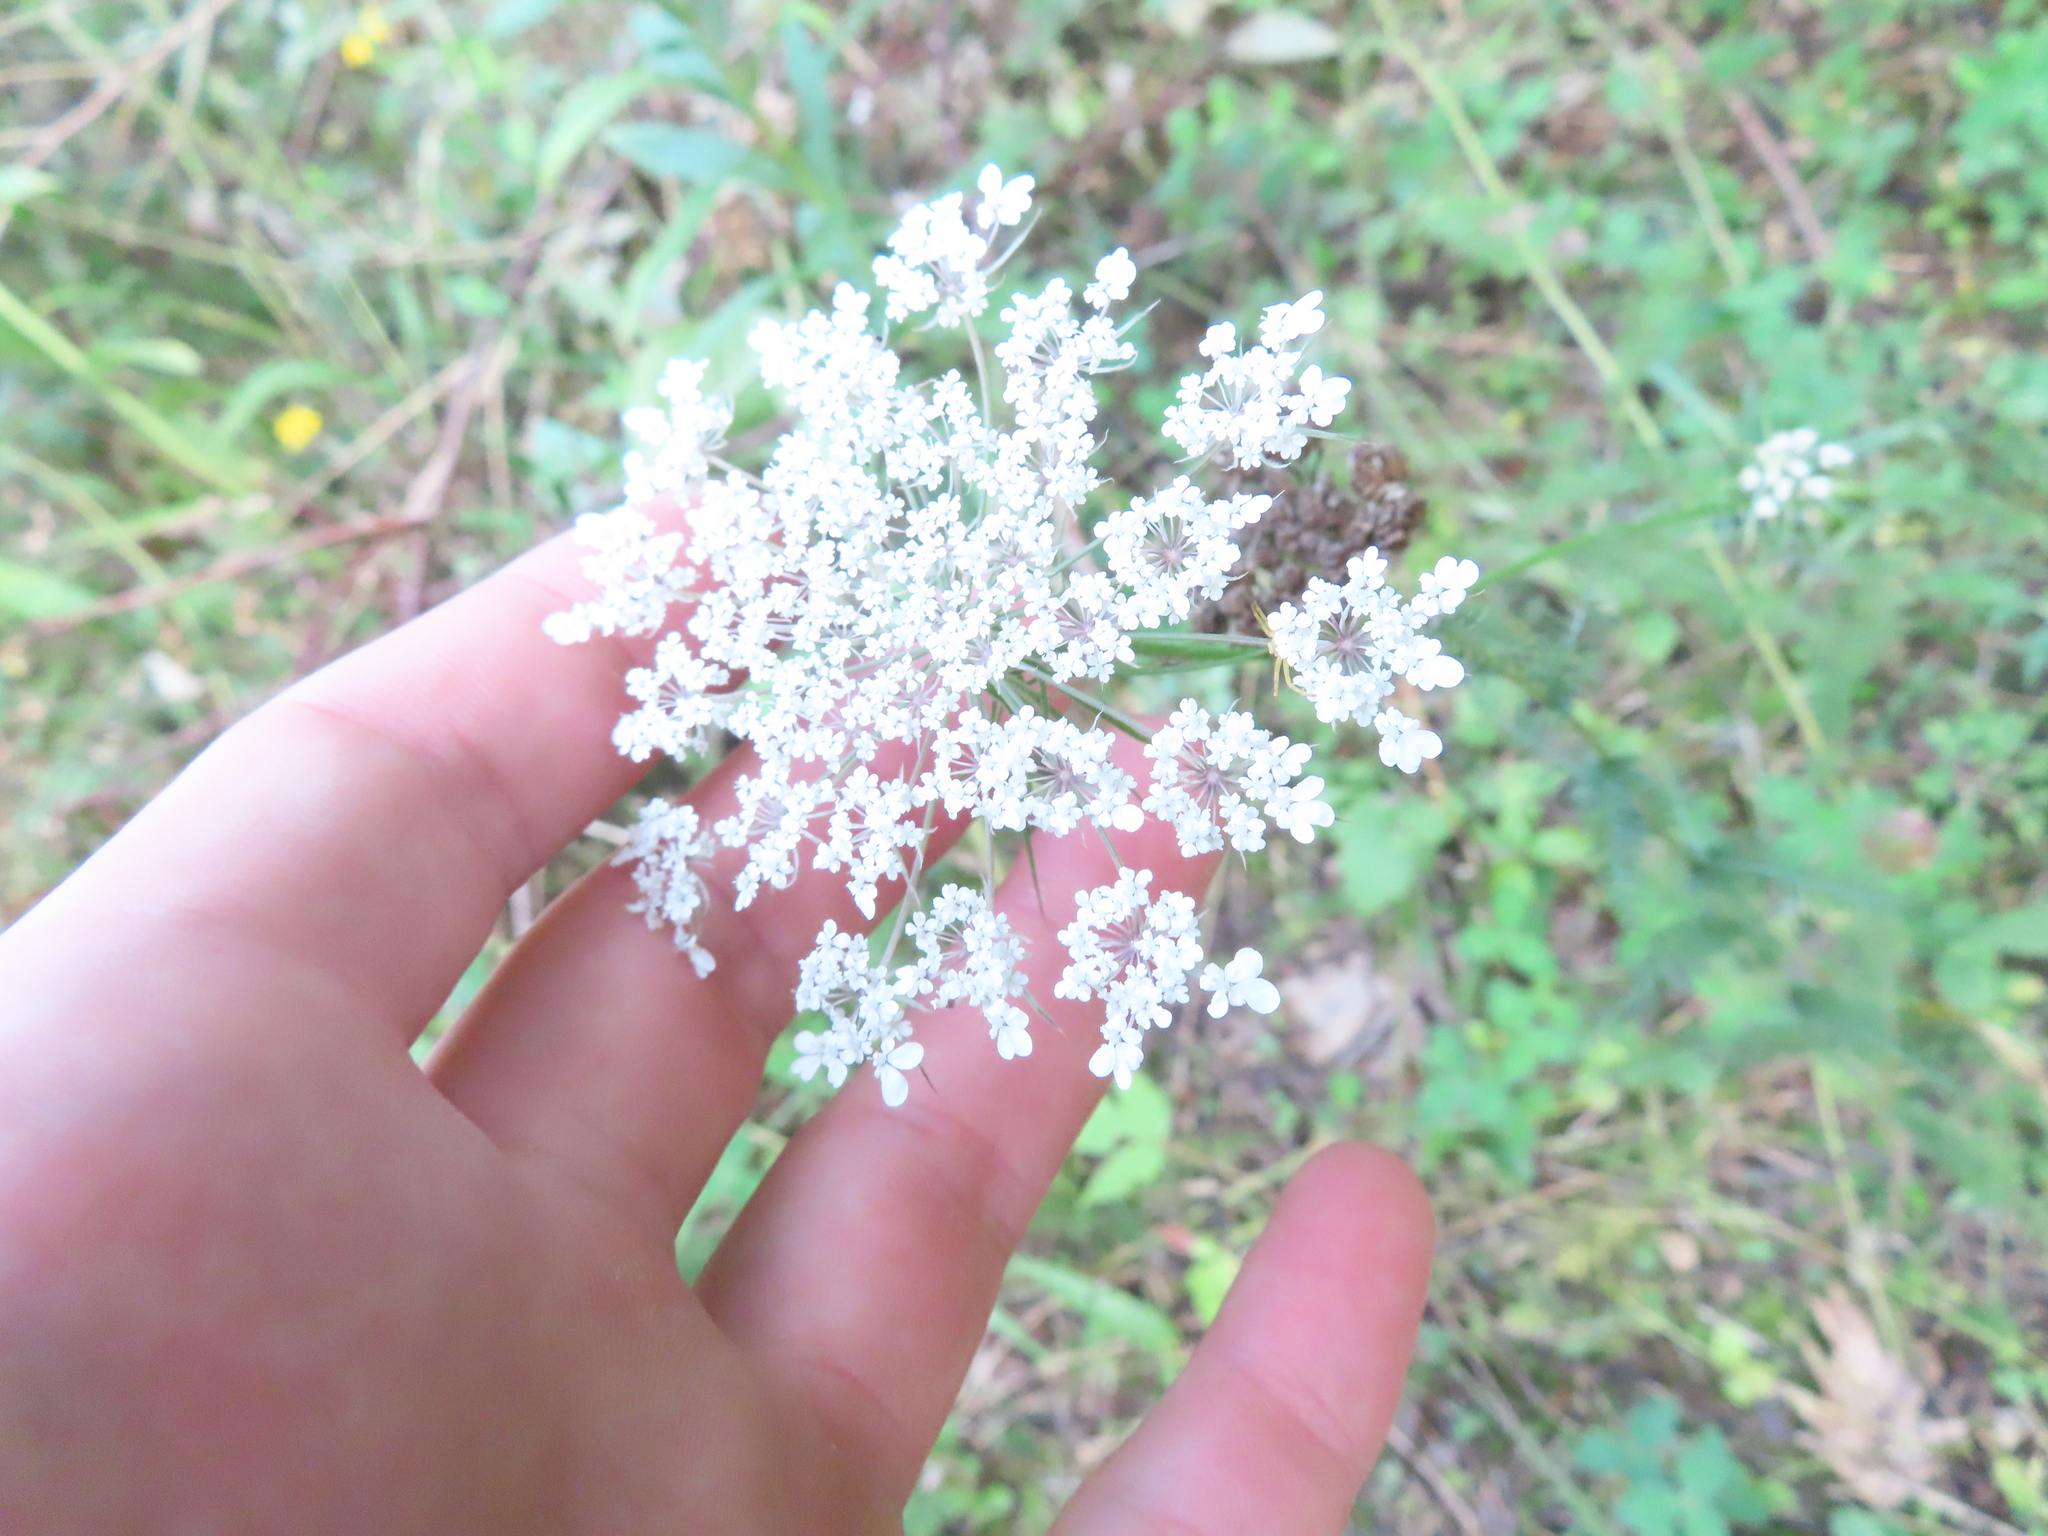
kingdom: Plantae
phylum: Tracheophyta
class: Magnoliopsida
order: Apiales
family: Apiaceae
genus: Daucus
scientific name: Daucus carota
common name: Wild carrot
